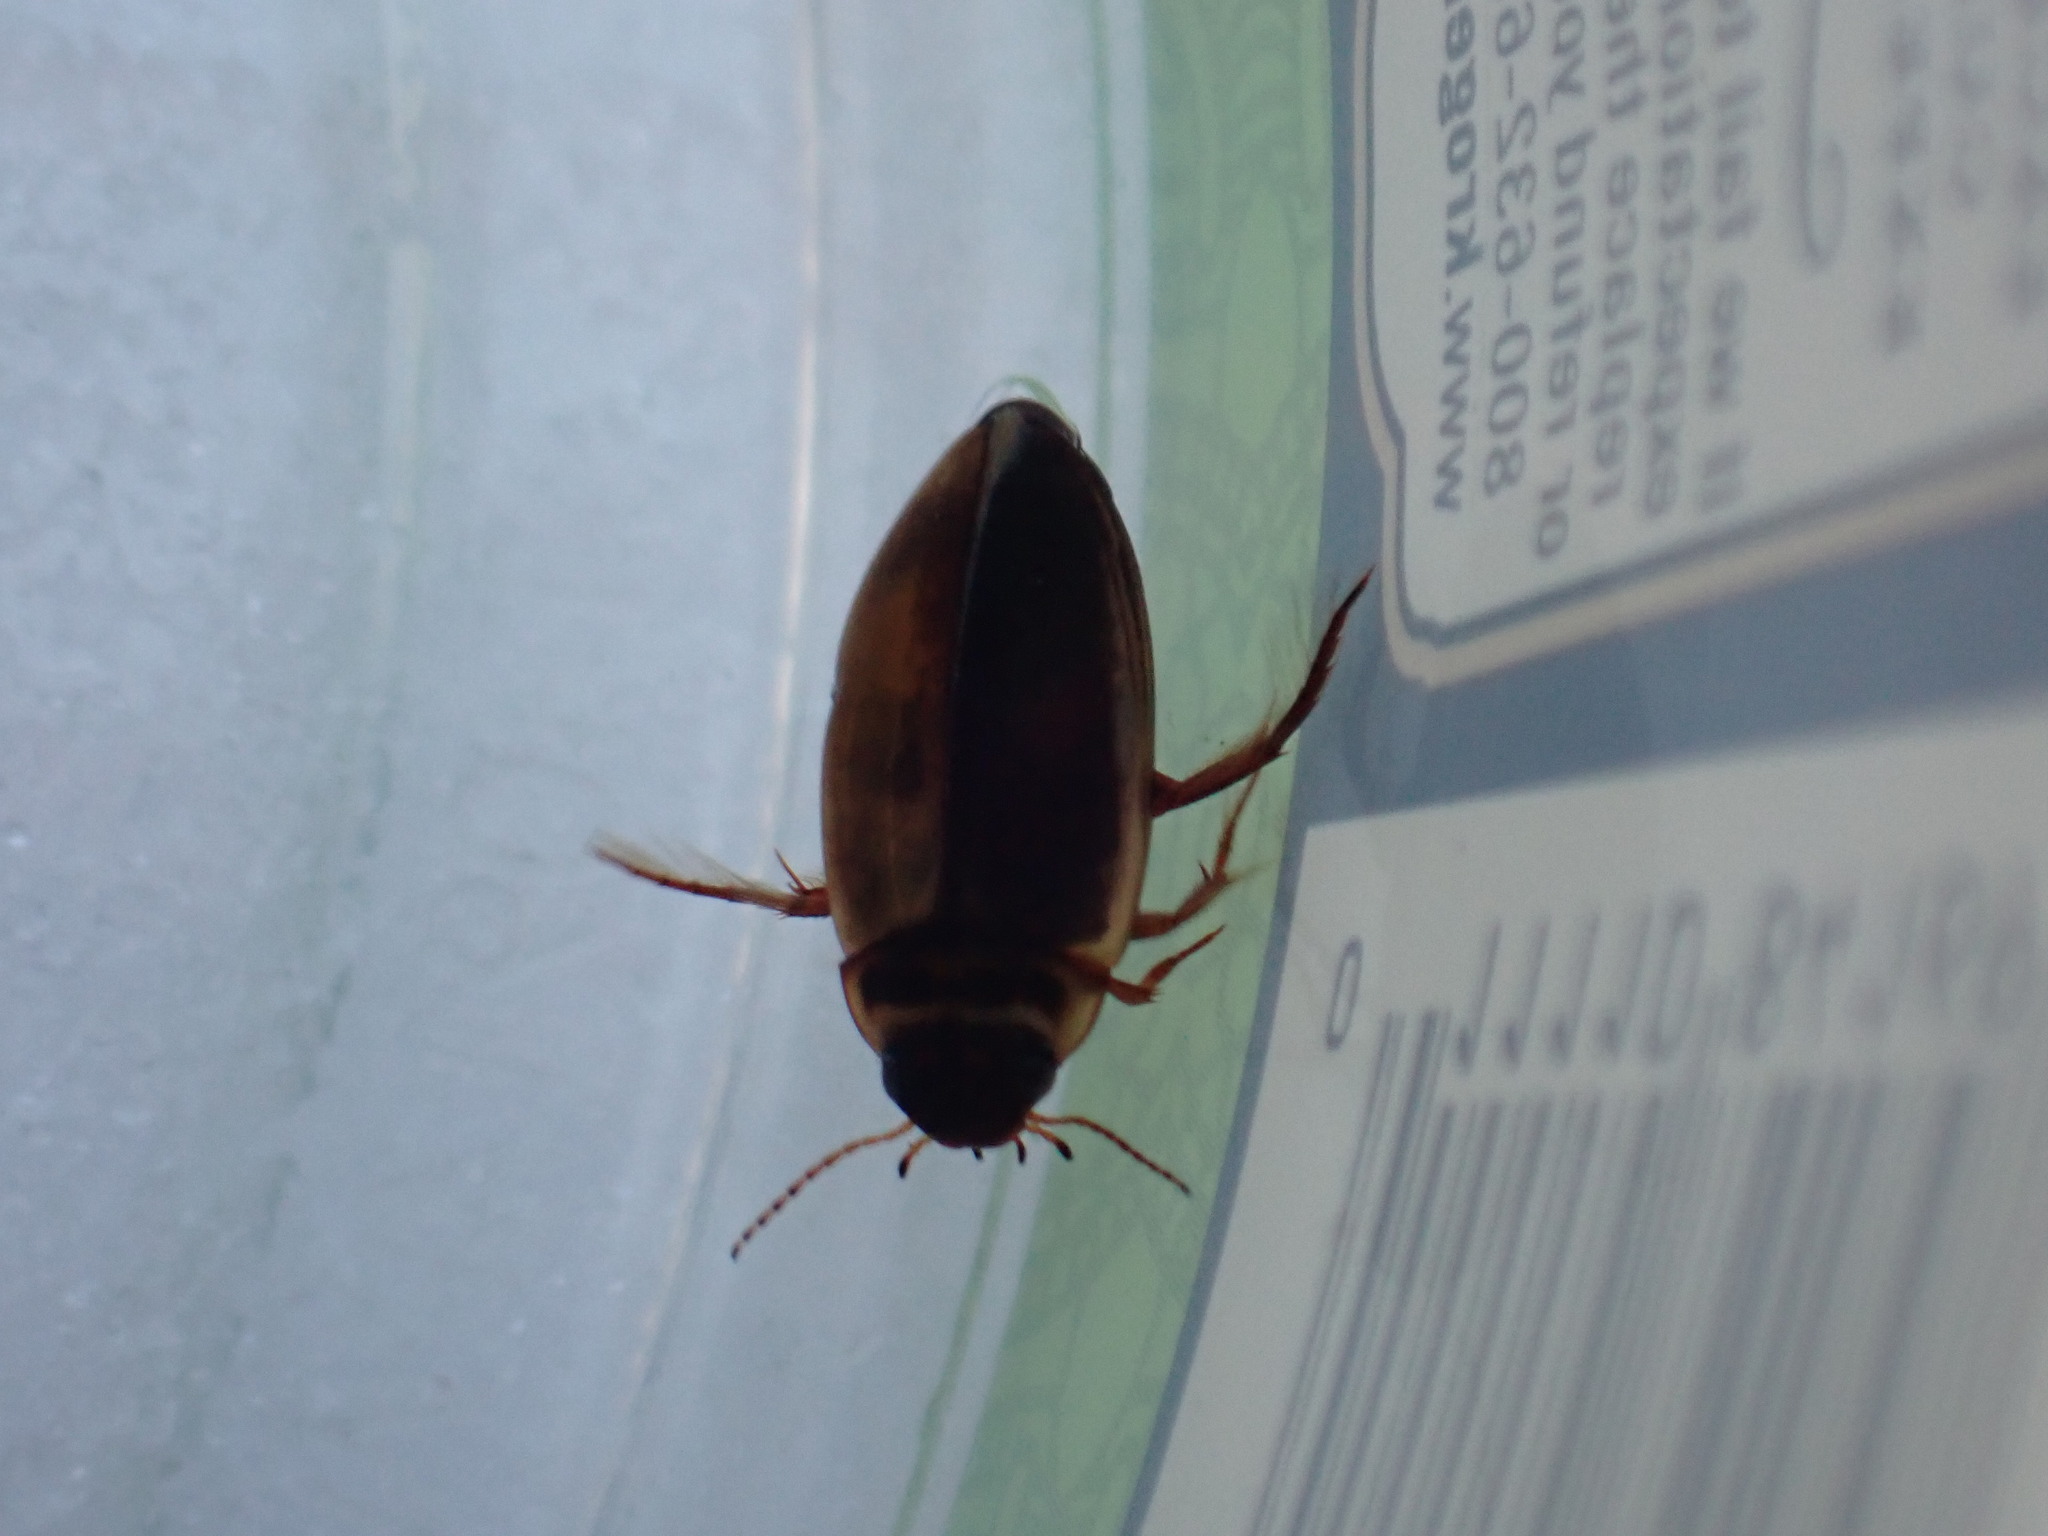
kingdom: Animalia
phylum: Arthropoda
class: Insecta
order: Coleoptera
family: Dytiscidae
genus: Colymbetes
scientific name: Colymbetes
